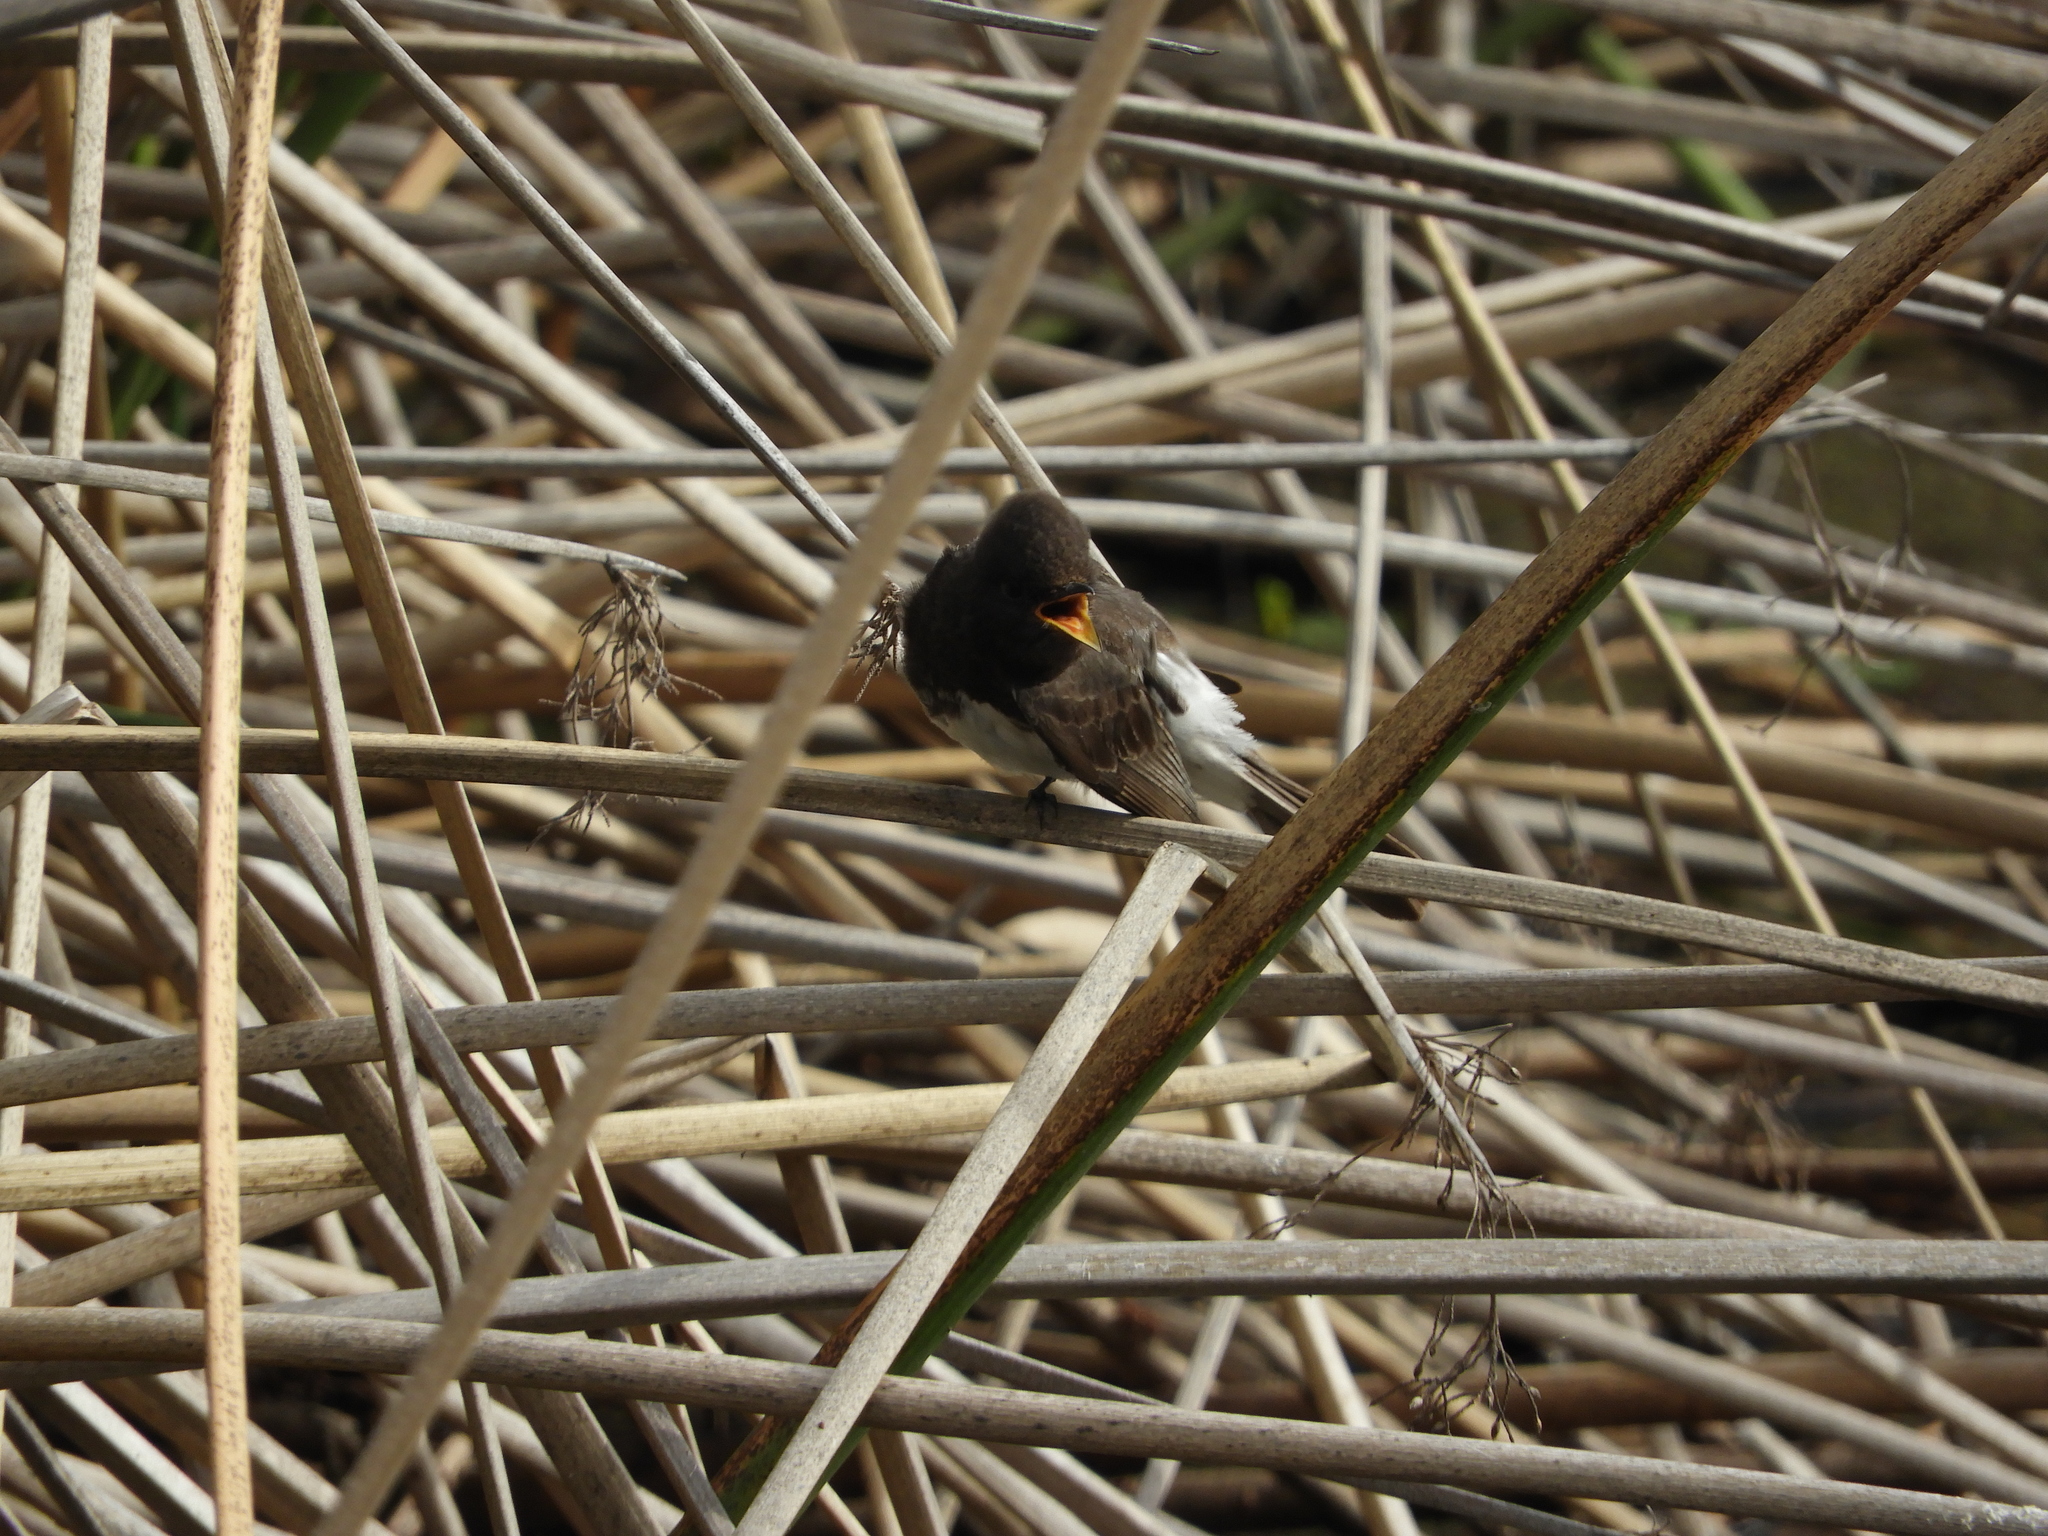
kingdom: Animalia
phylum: Chordata
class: Aves
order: Passeriformes
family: Tyrannidae
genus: Sayornis
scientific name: Sayornis nigricans
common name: Black phoebe
